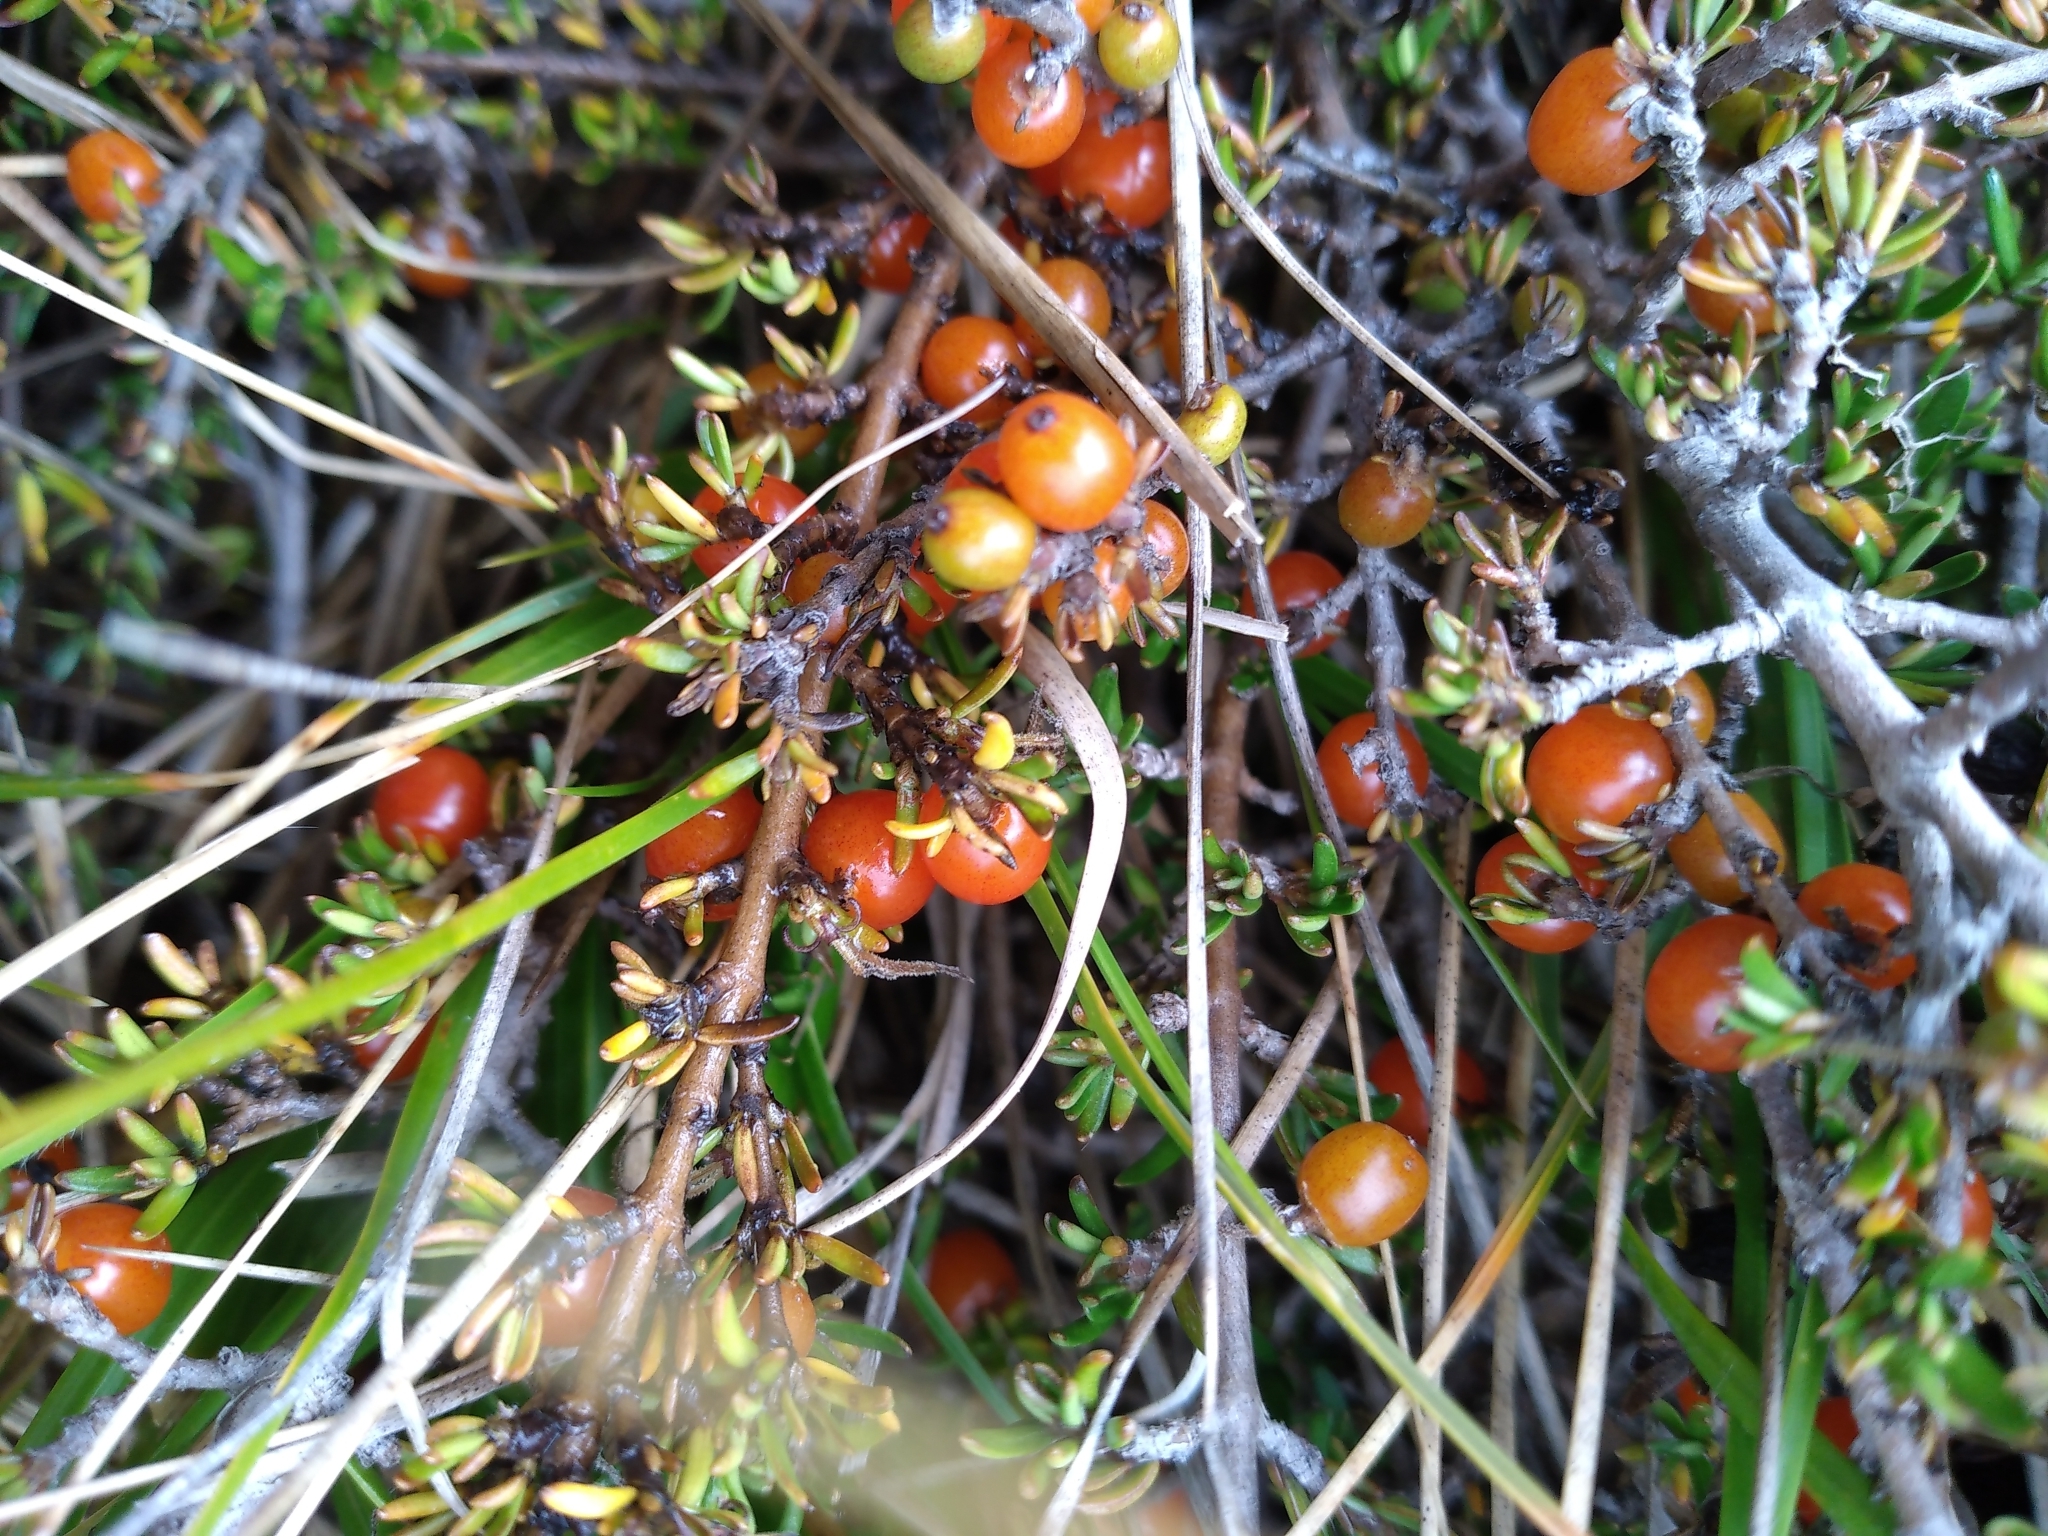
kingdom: Plantae
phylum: Tracheophyta
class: Magnoliopsida
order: Gentianales
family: Rubiaceae
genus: Coprosma
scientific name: Coprosma cheesemanii
